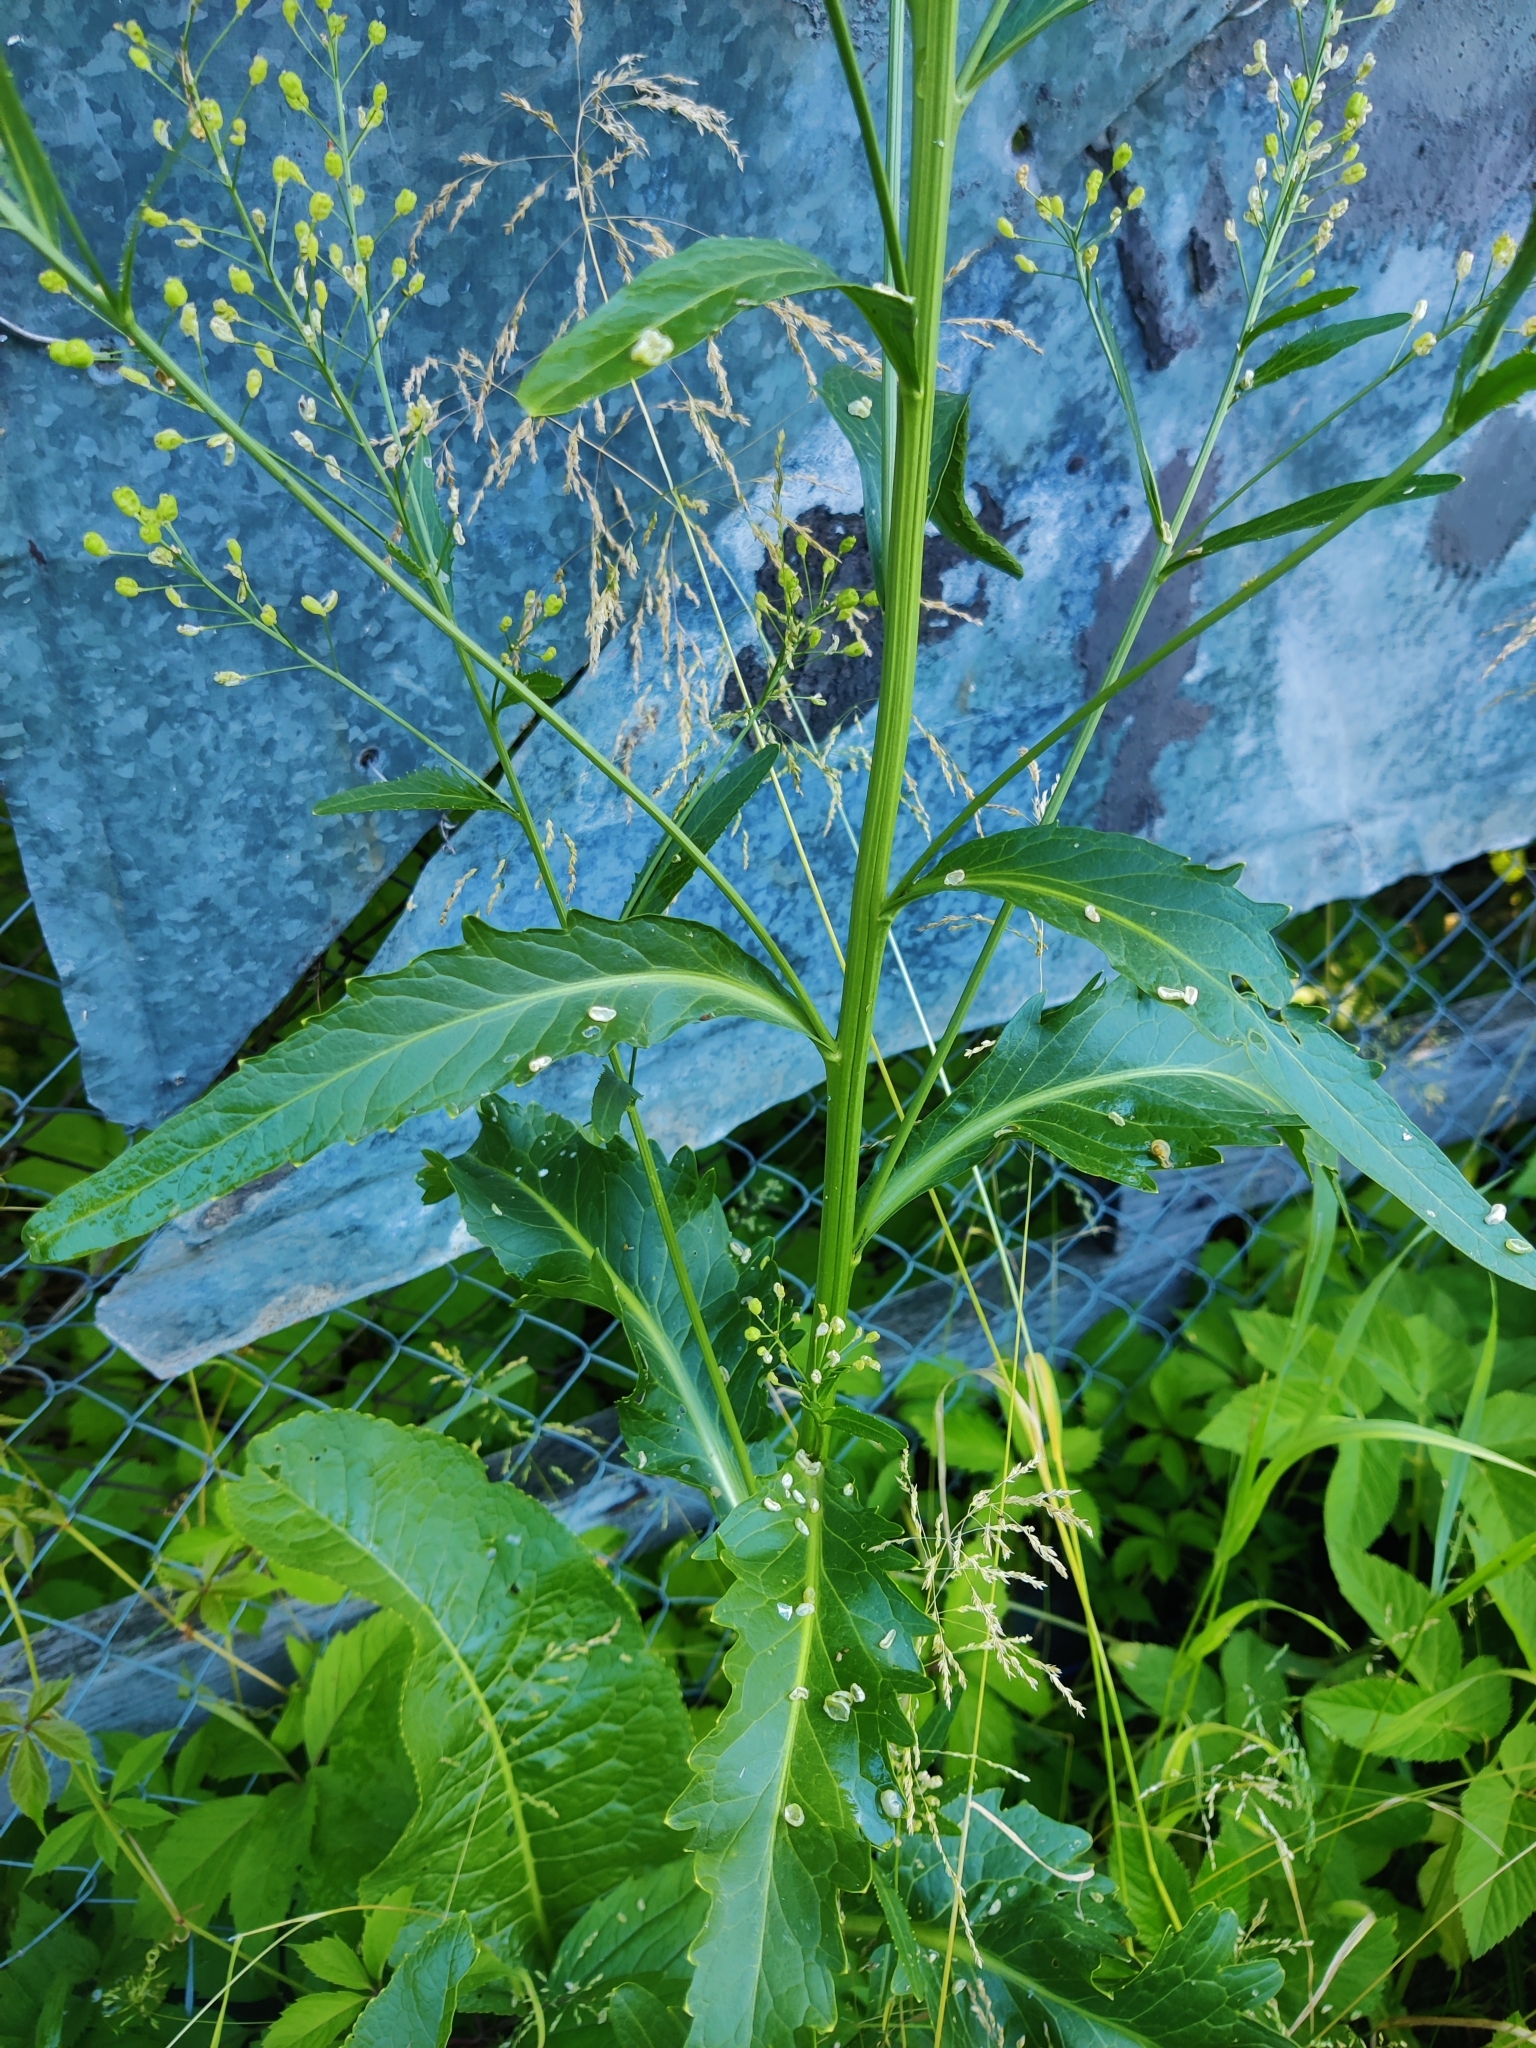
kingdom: Plantae
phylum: Tracheophyta
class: Magnoliopsida
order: Brassicales
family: Brassicaceae
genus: Armoracia
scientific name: Armoracia rusticana
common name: Horseradish
